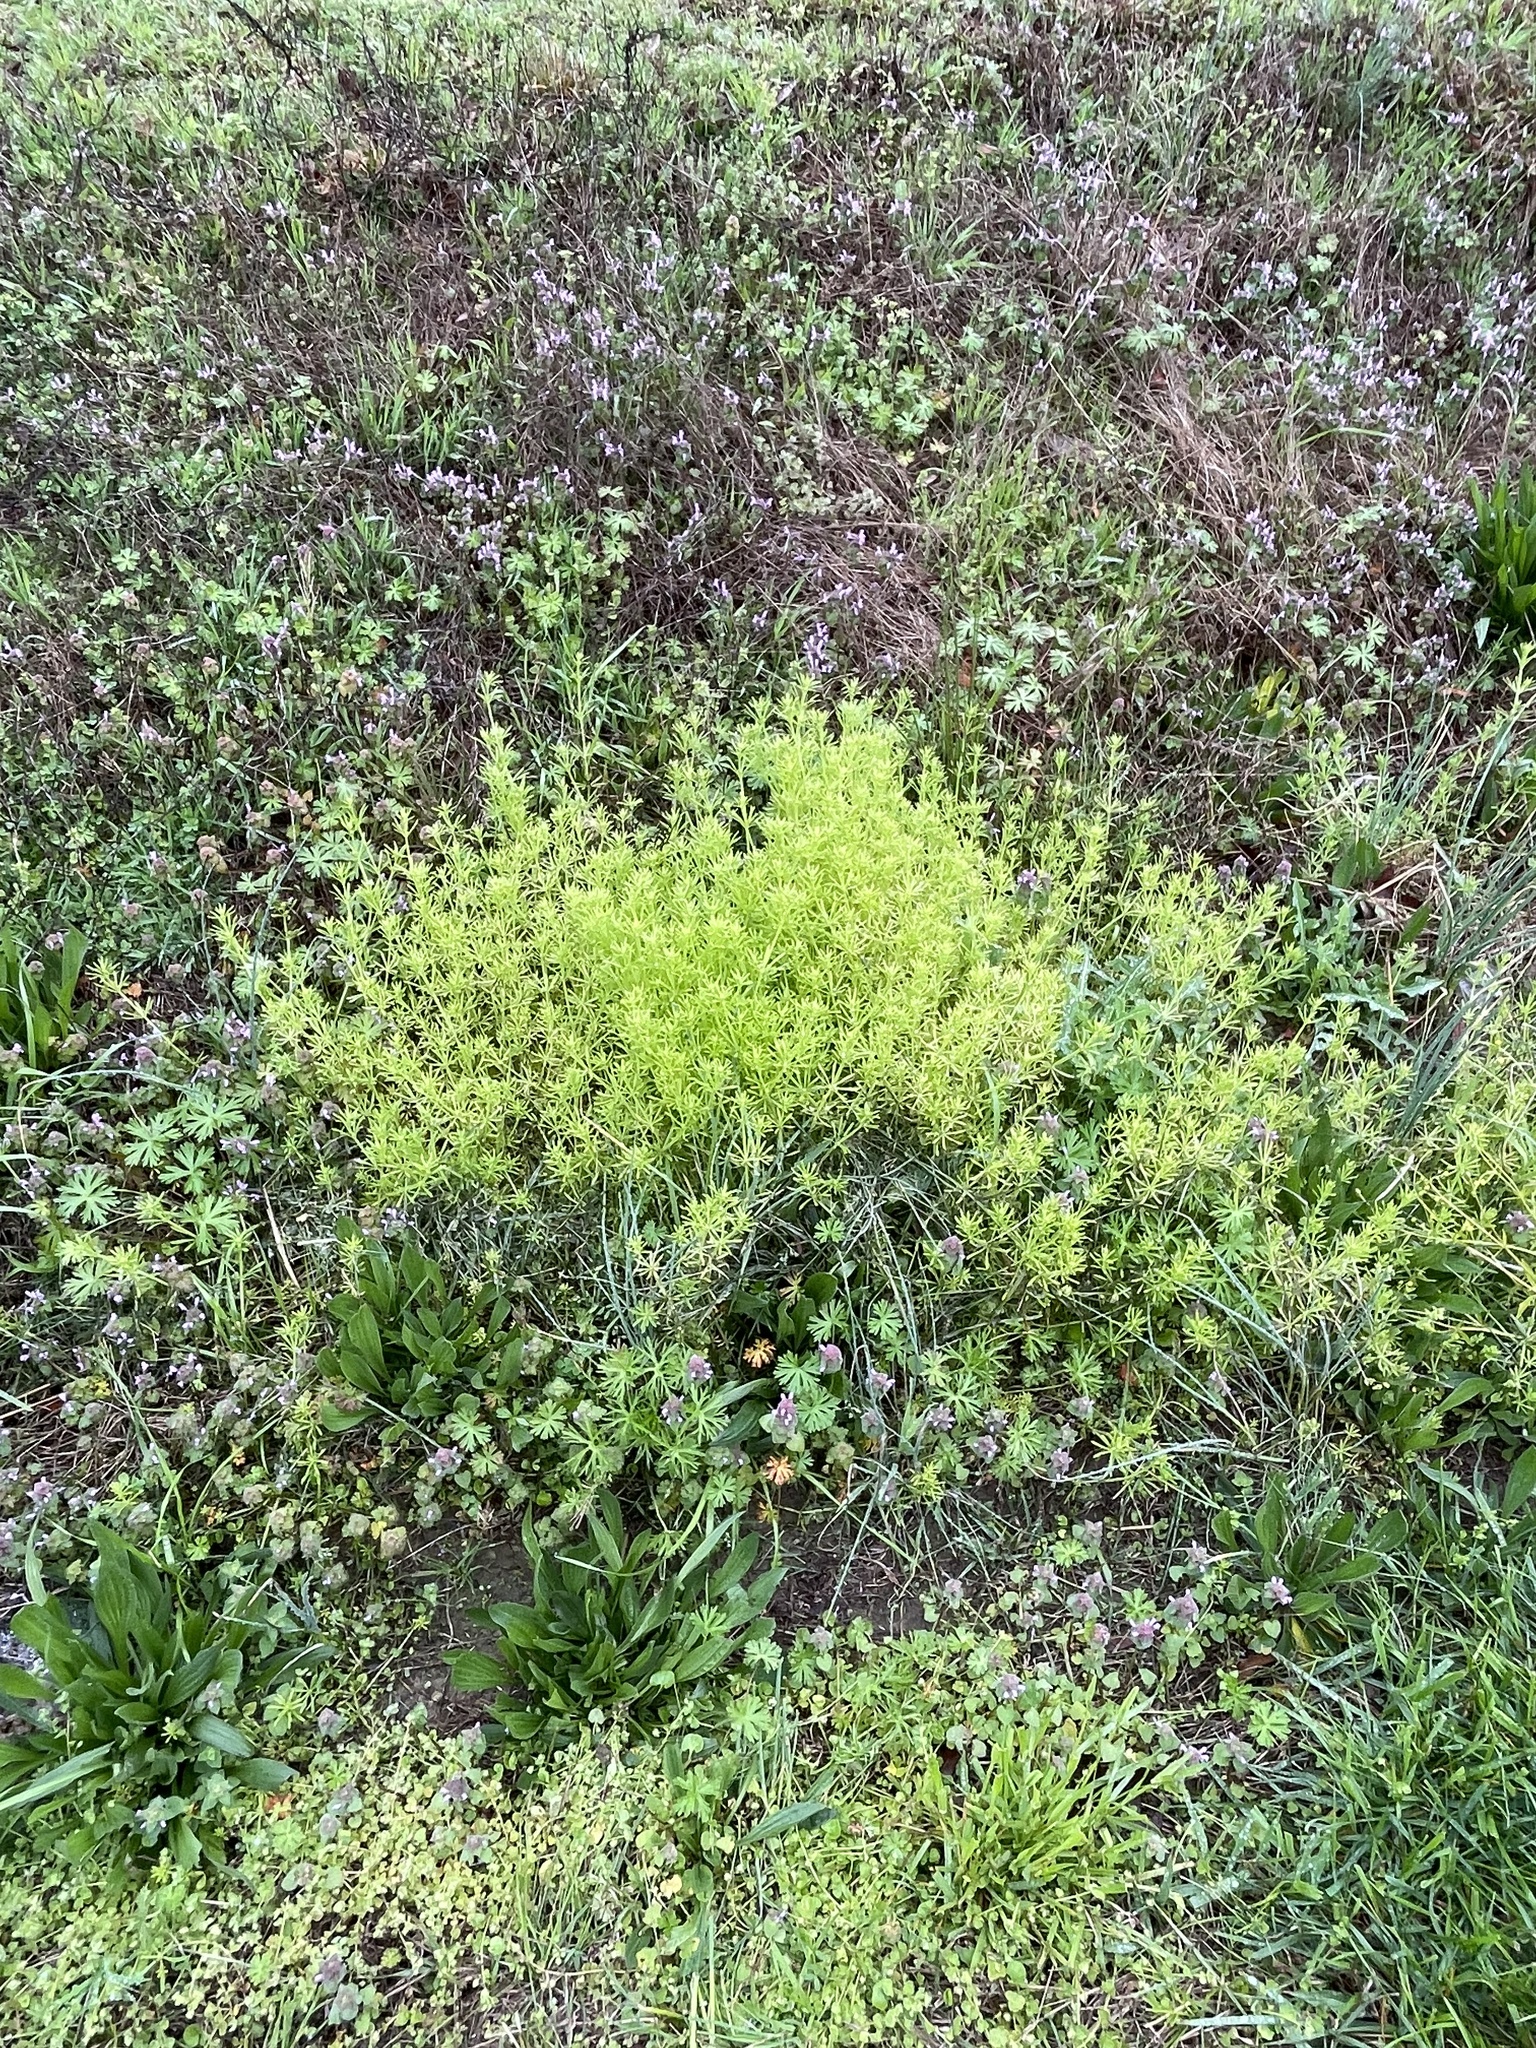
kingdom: Plantae
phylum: Tracheophyta
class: Magnoliopsida
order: Gentianales
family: Rubiaceae
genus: Galium
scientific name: Galium aparine
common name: Cleavers
